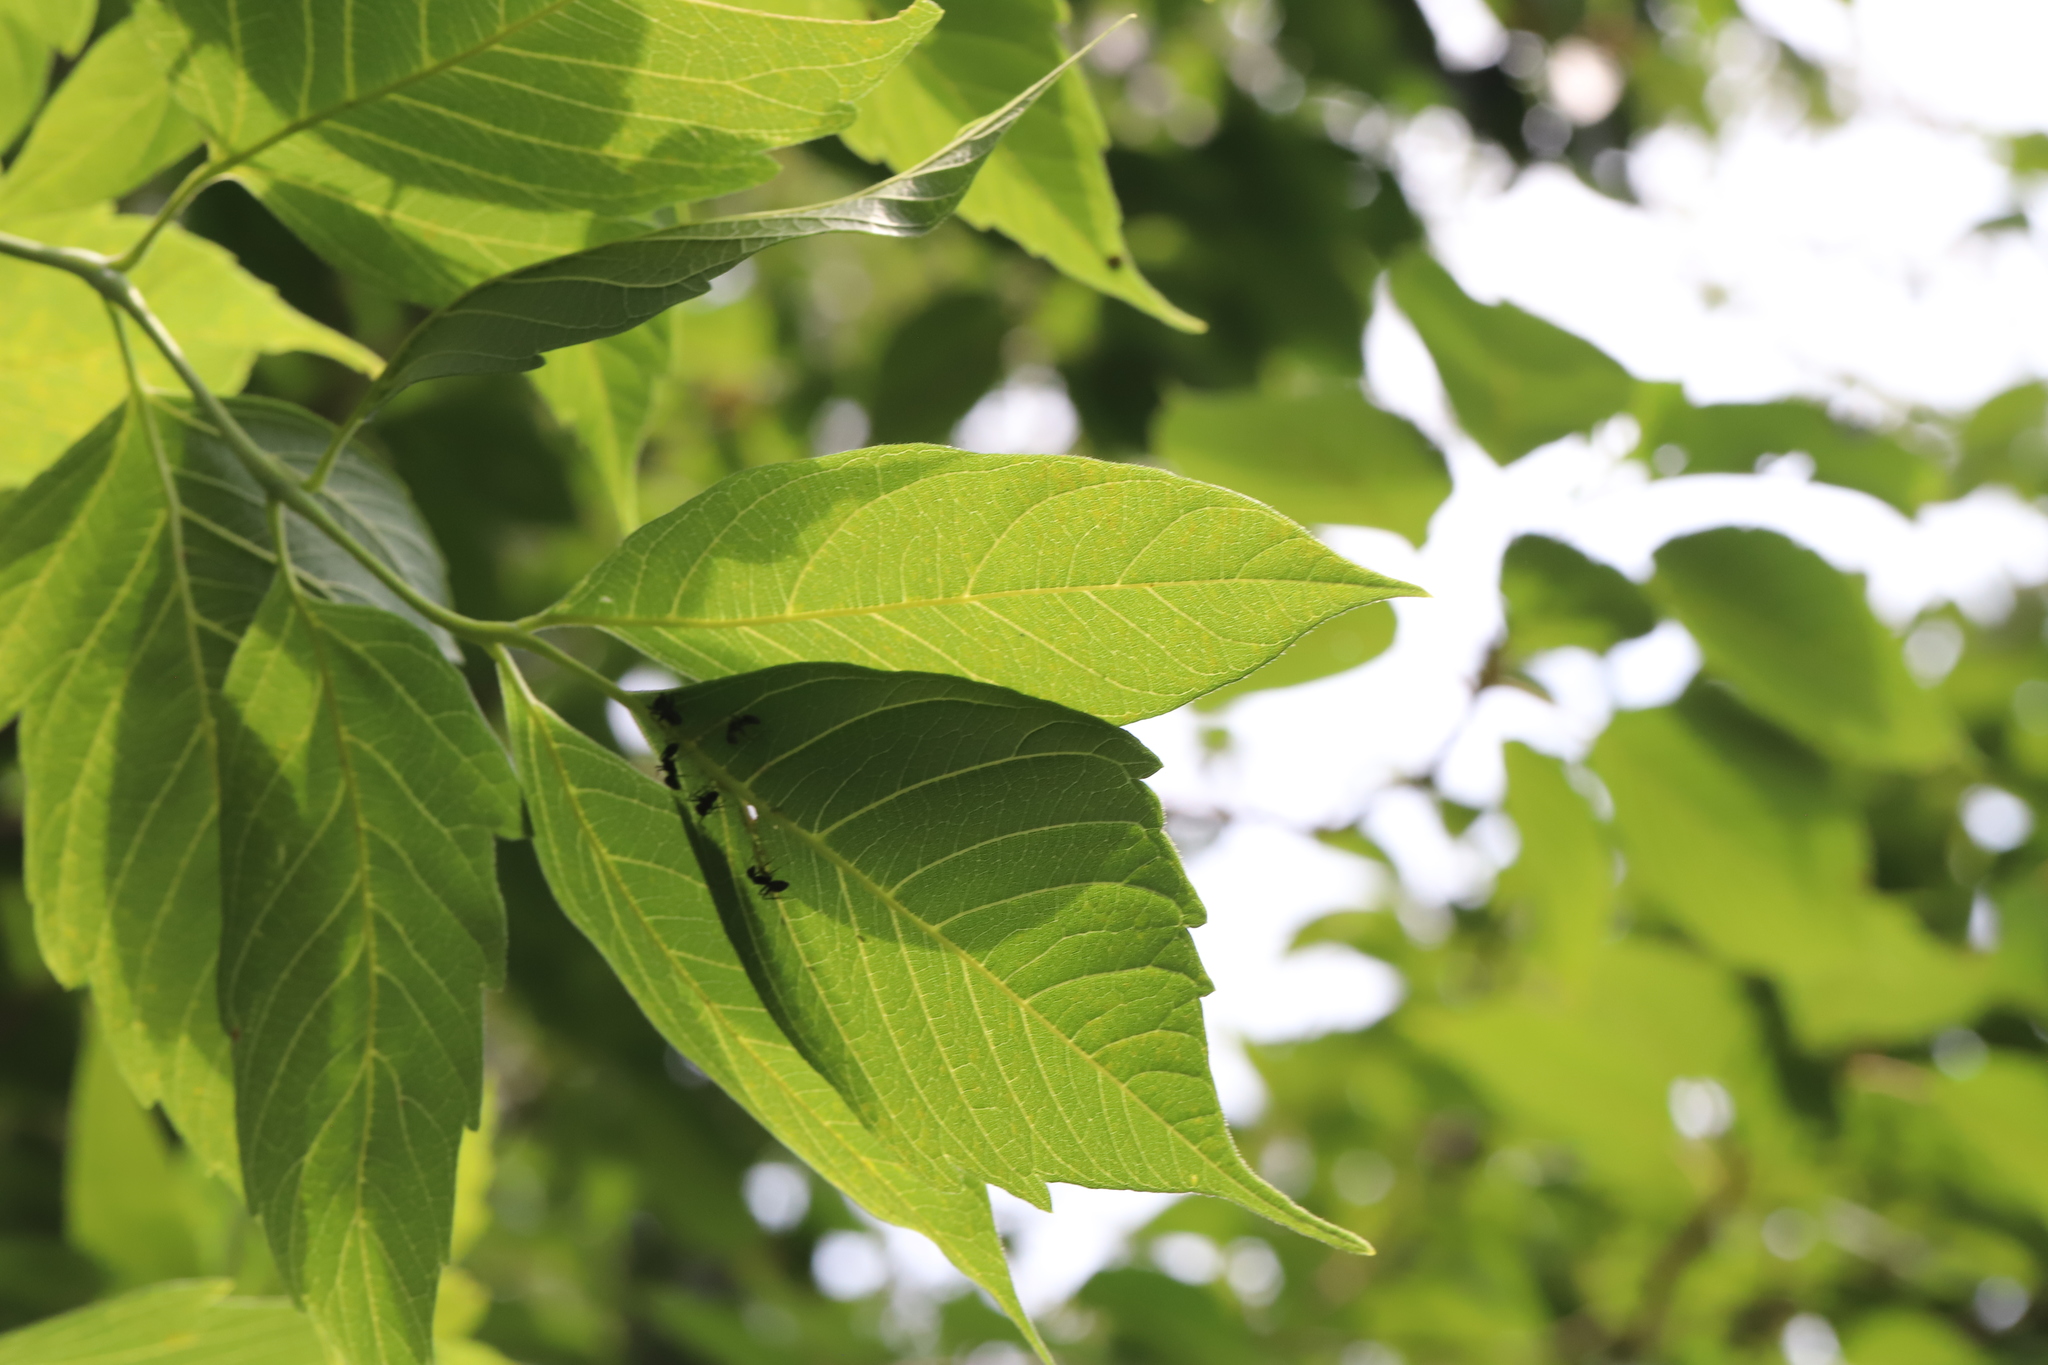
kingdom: Animalia
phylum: Arthropoda
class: Insecta
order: Hymenoptera
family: Formicidae
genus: Camponotus
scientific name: Camponotus pennsylvanicus
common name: Black carpenter ant
